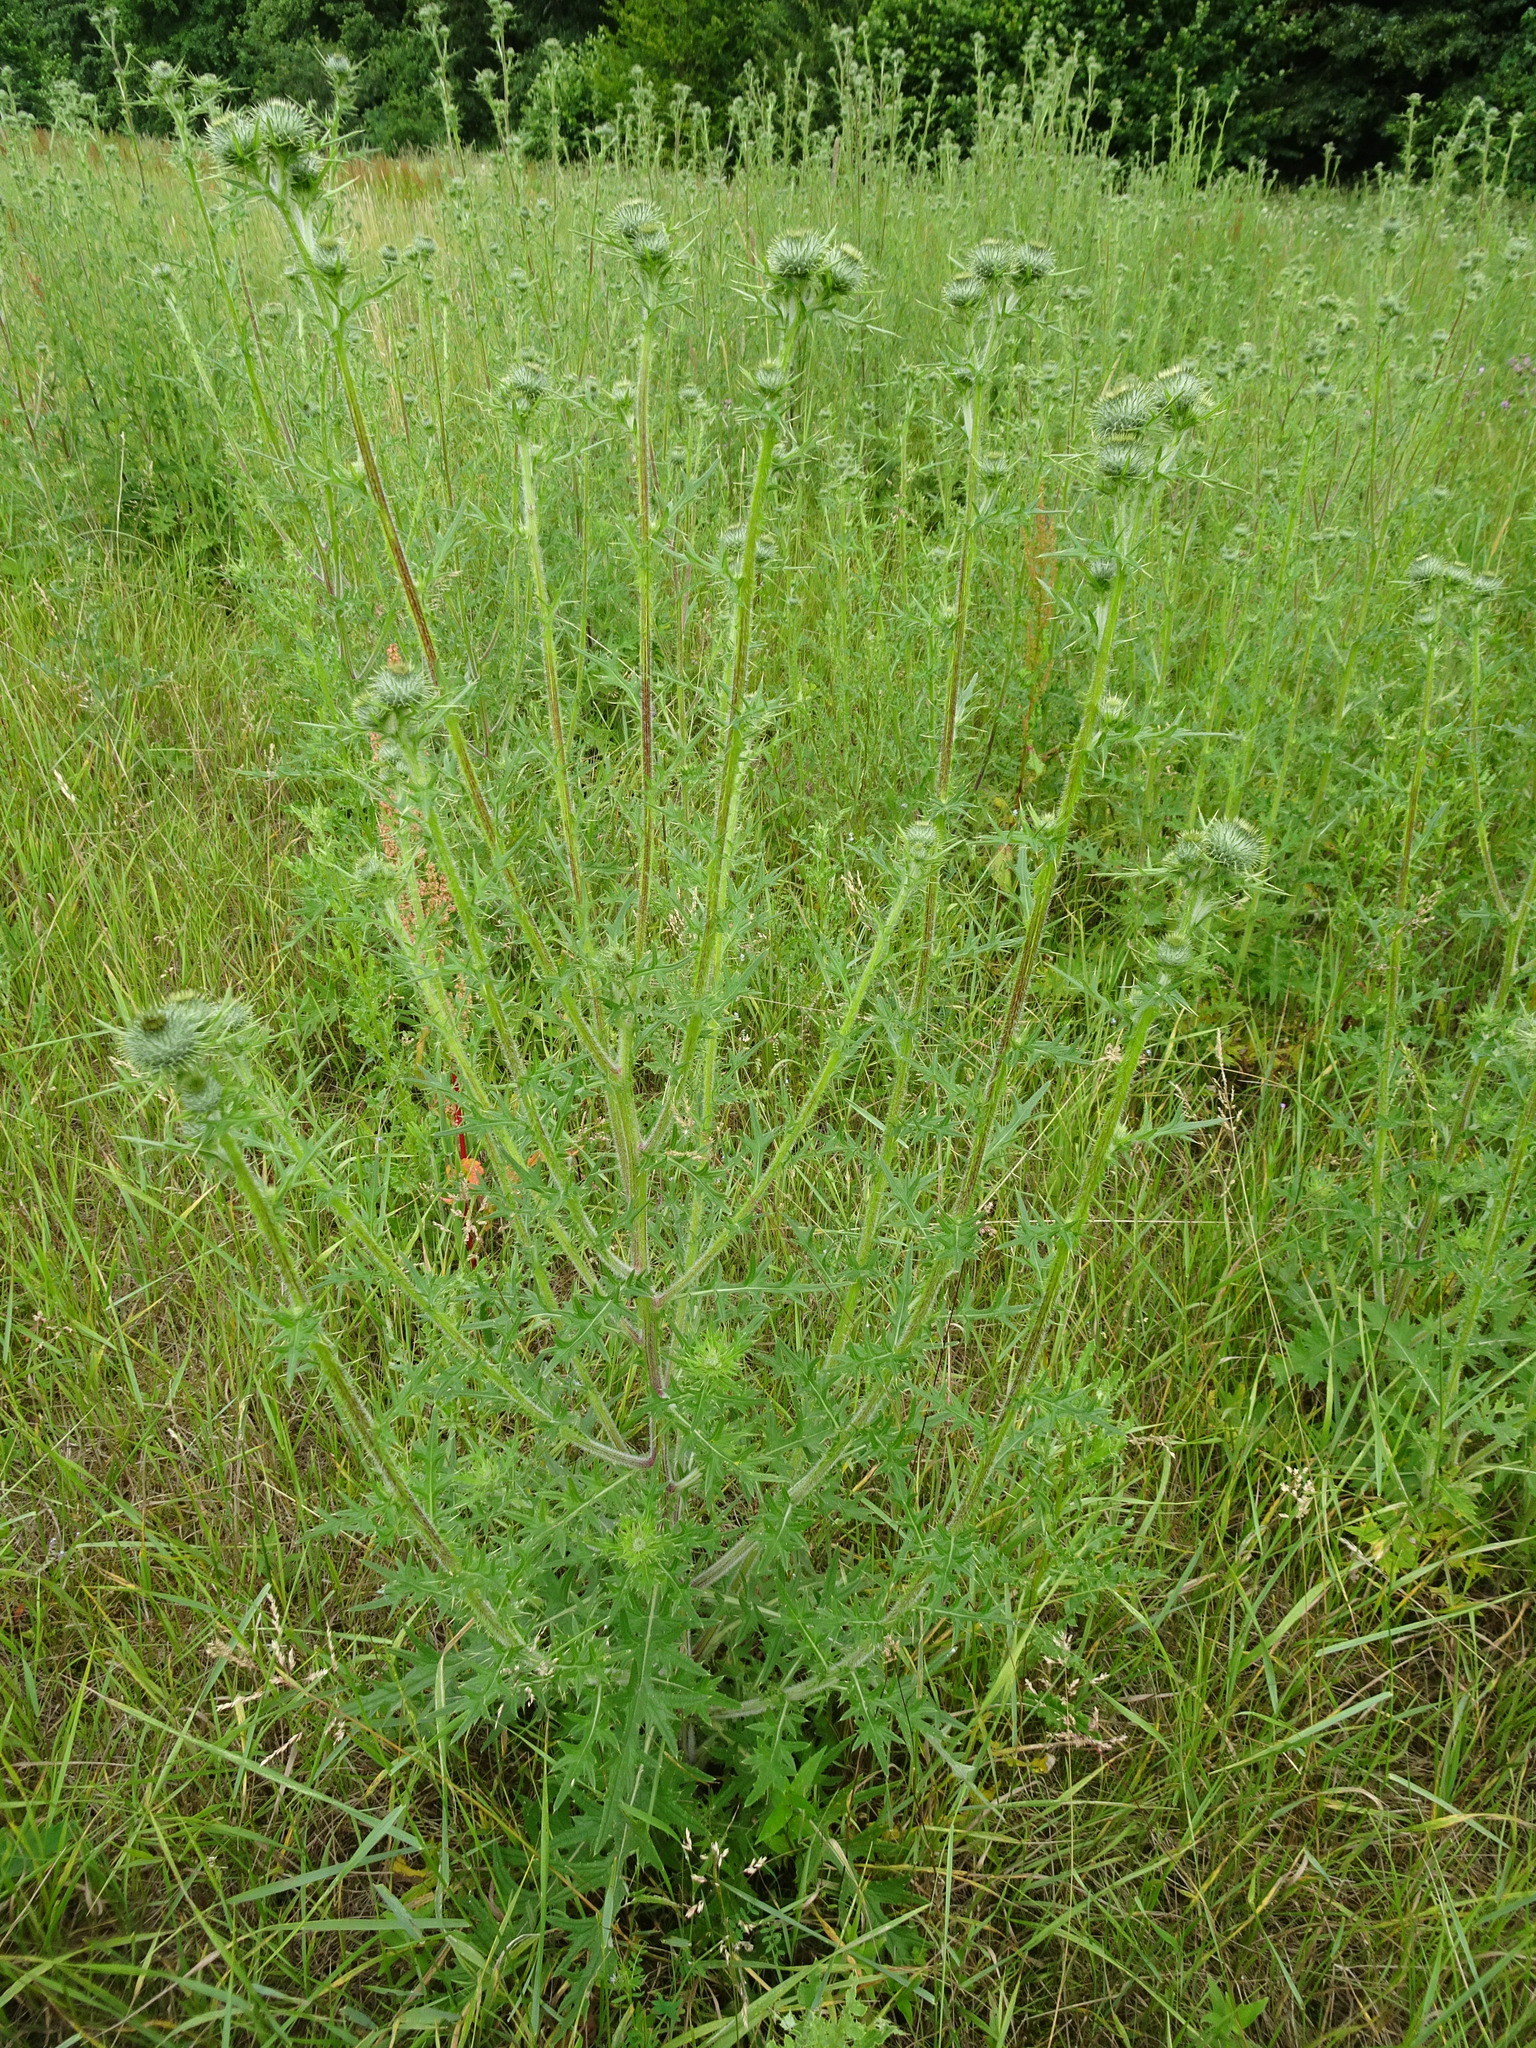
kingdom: Plantae
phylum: Tracheophyta
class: Magnoliopsida
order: Asterales
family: Asteraceae
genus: Cirsium
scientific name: Cirsium vulgare
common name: Bull thistle
